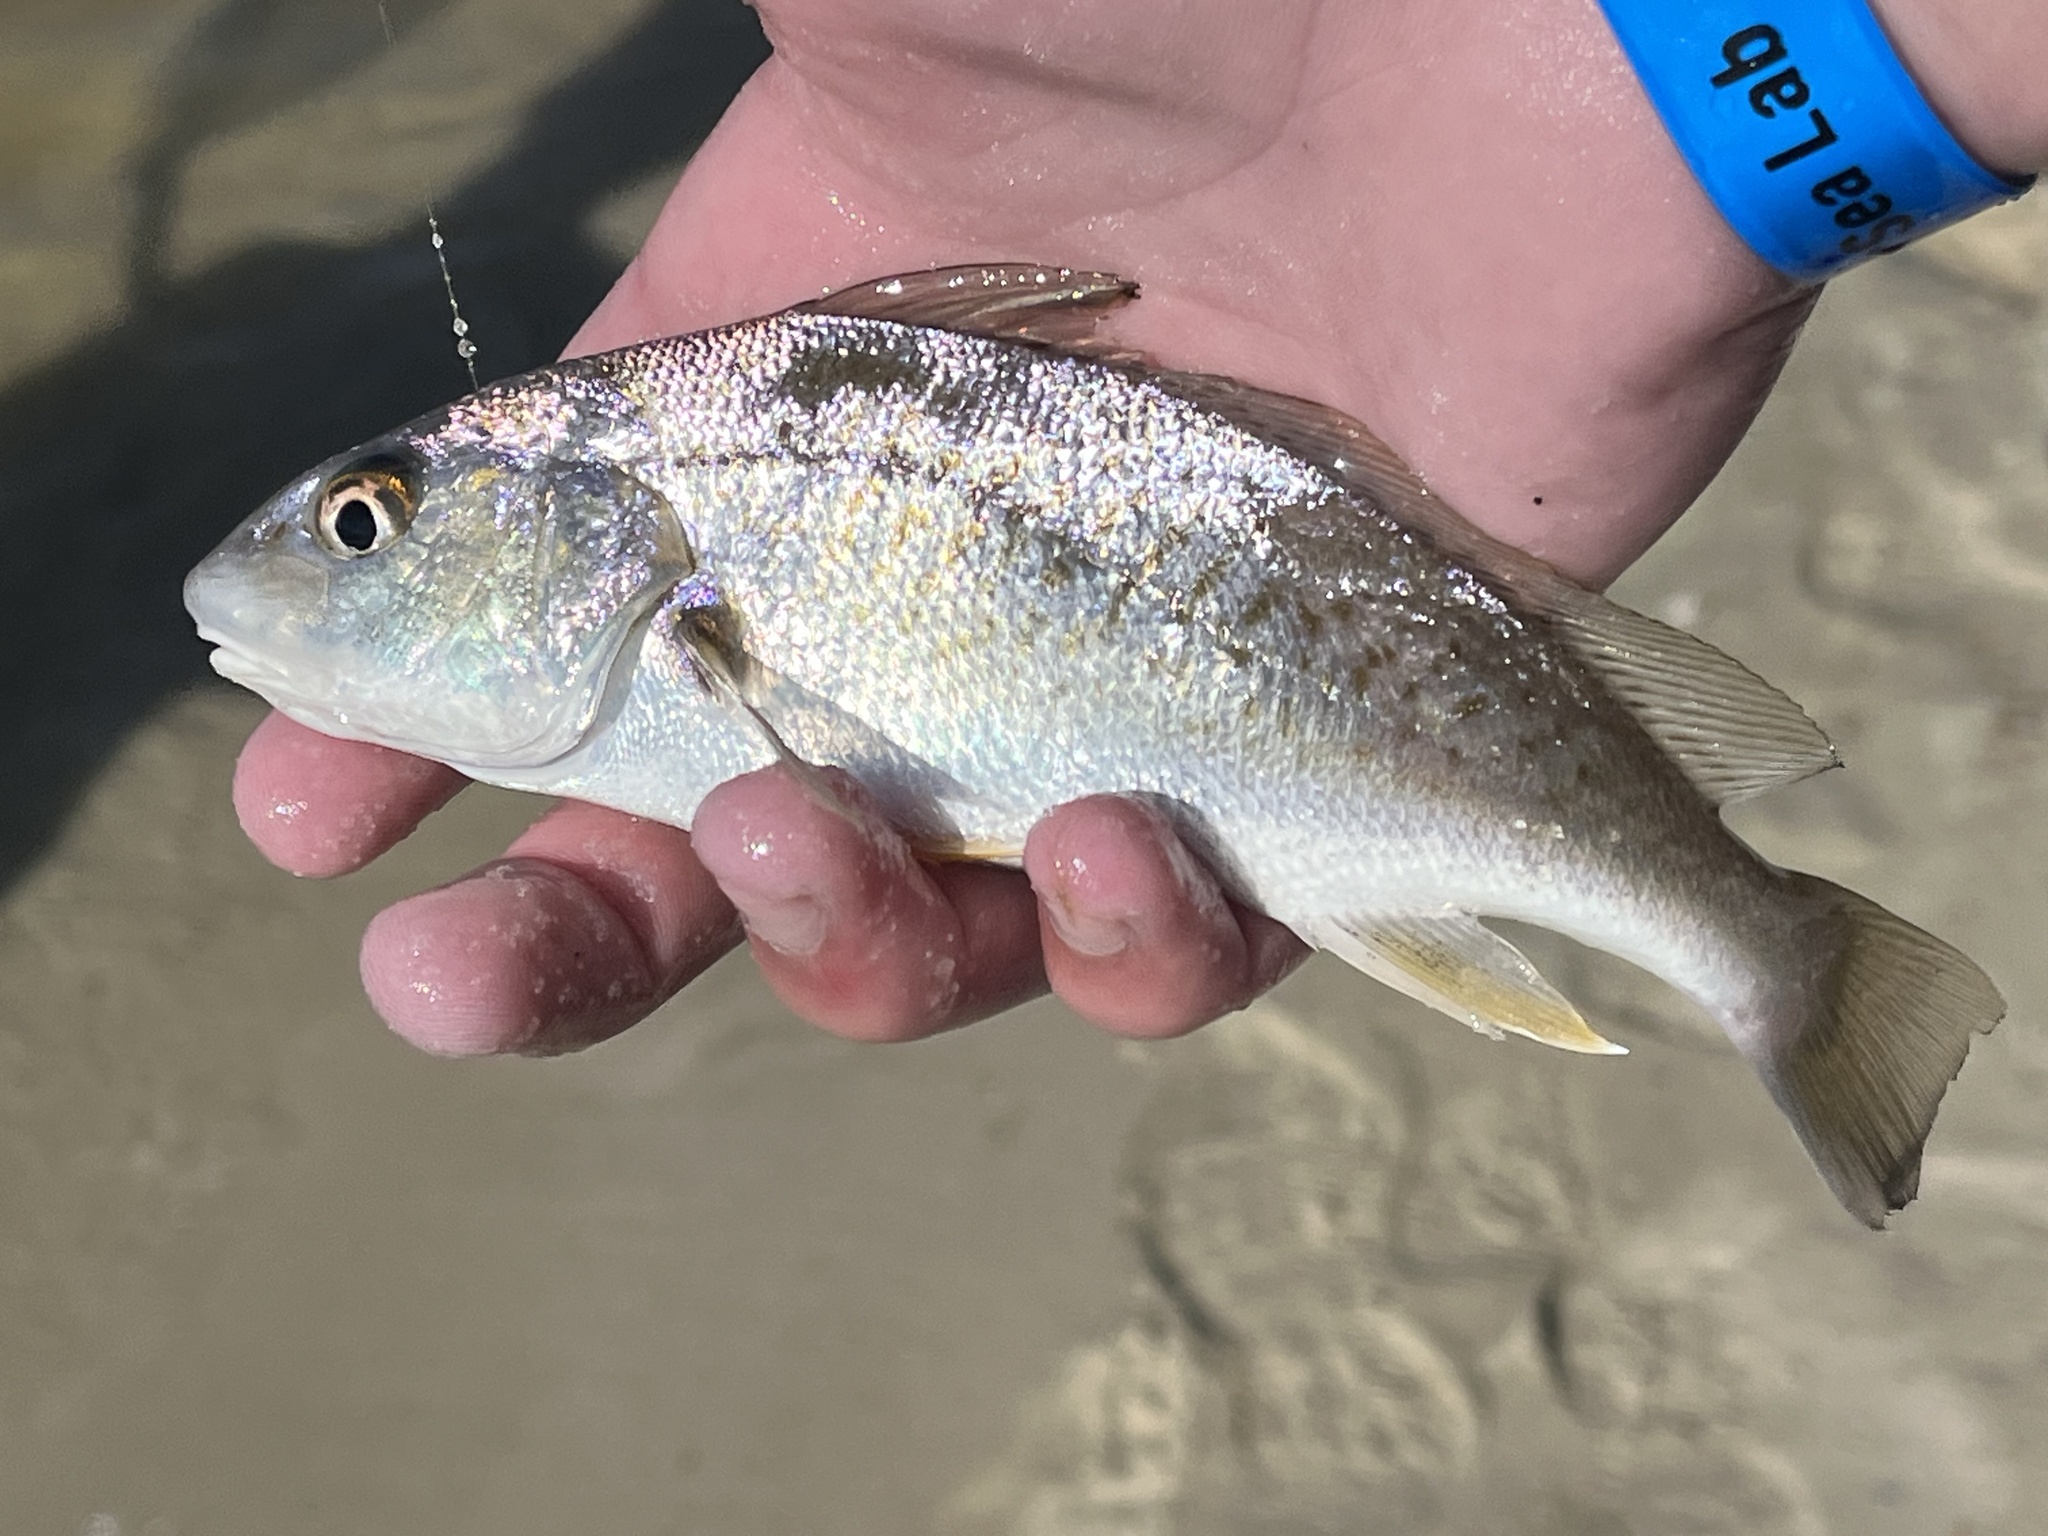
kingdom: Animalia
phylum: Chordata
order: Perciformes
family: Sciaenidae
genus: Micropogonias
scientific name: Micropogonias undulatus
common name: Atlantic croaker
